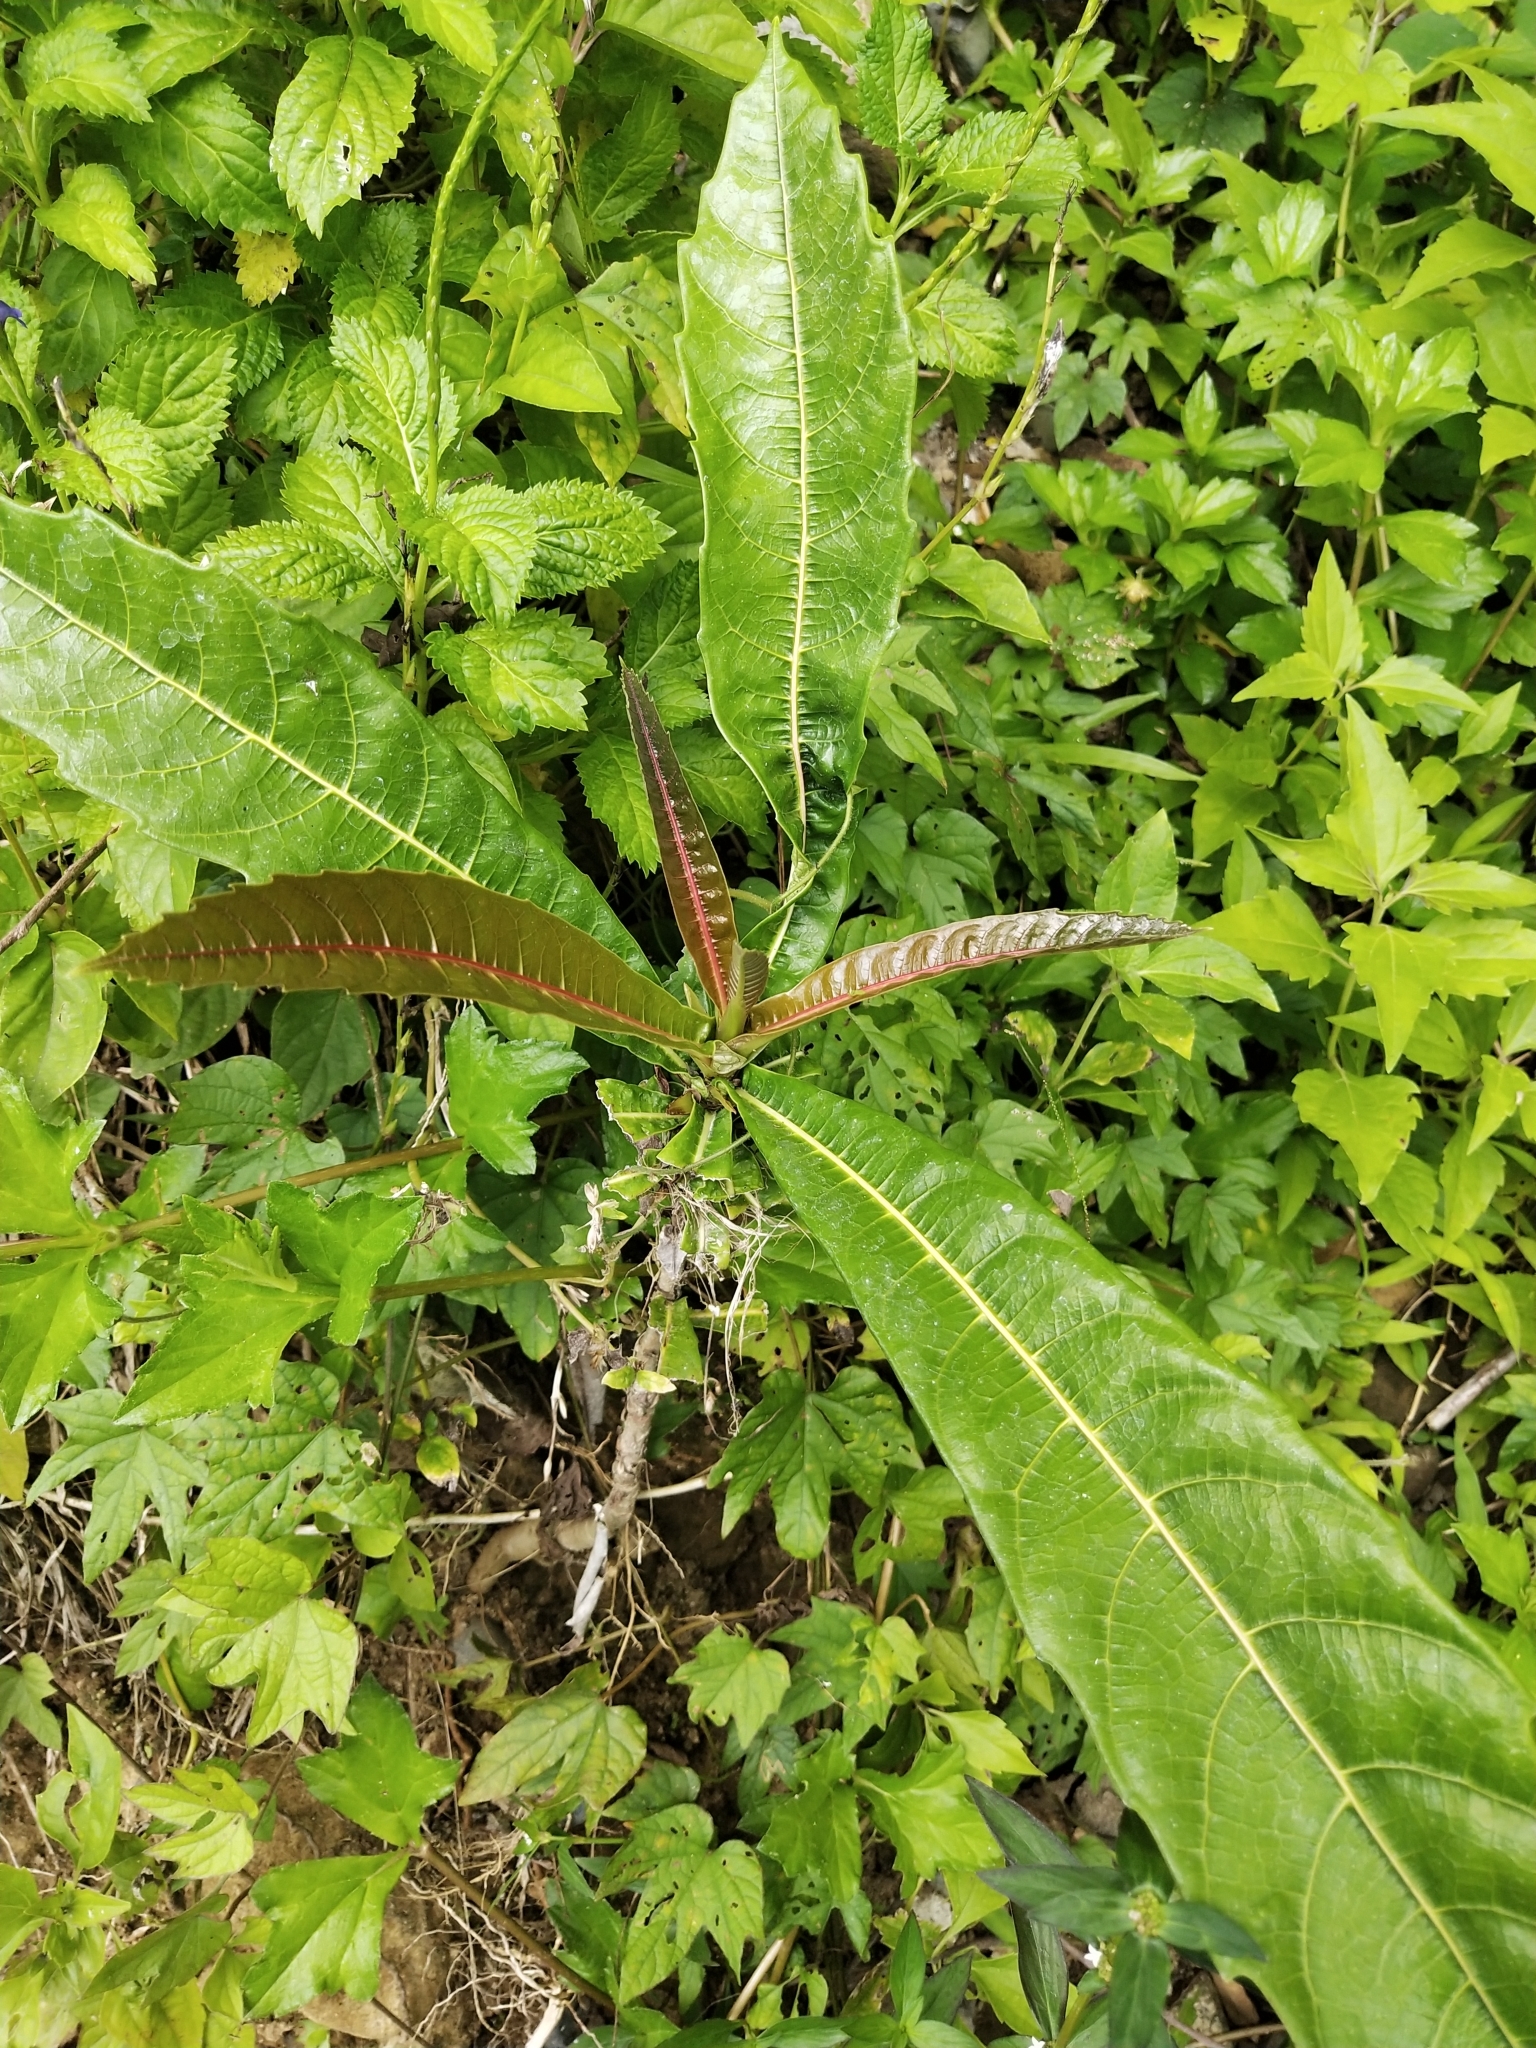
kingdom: Plantae
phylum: Tracheophyta
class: Magnoliopsida
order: Rosales
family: Moraceae
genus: Ficus
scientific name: Ficus pseudopalma
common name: Palm-like fig
